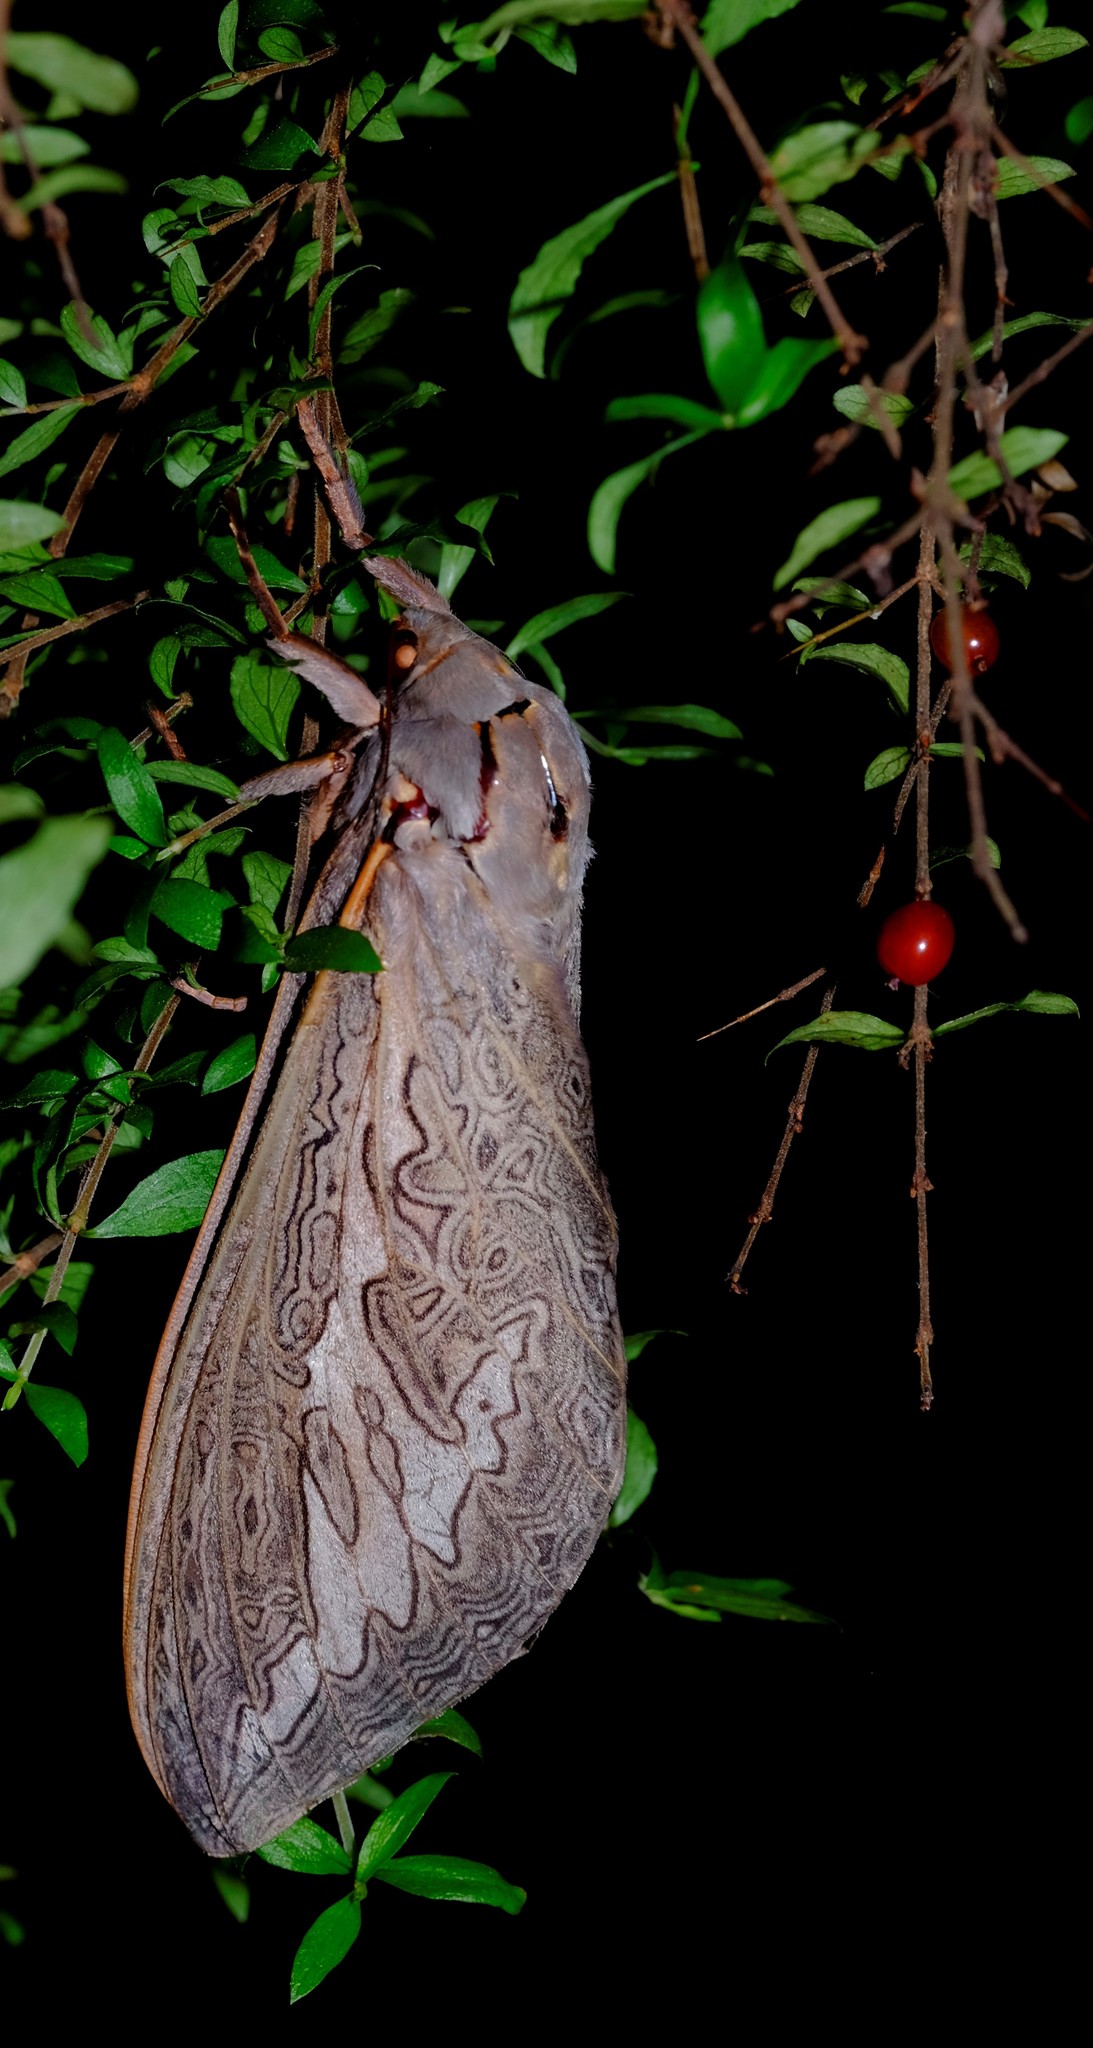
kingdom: Animalia
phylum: Arthropoda
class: Insecta
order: Lepidoptera
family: Hepialidae
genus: Abantiades
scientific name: Abantiades labyrinthicus
